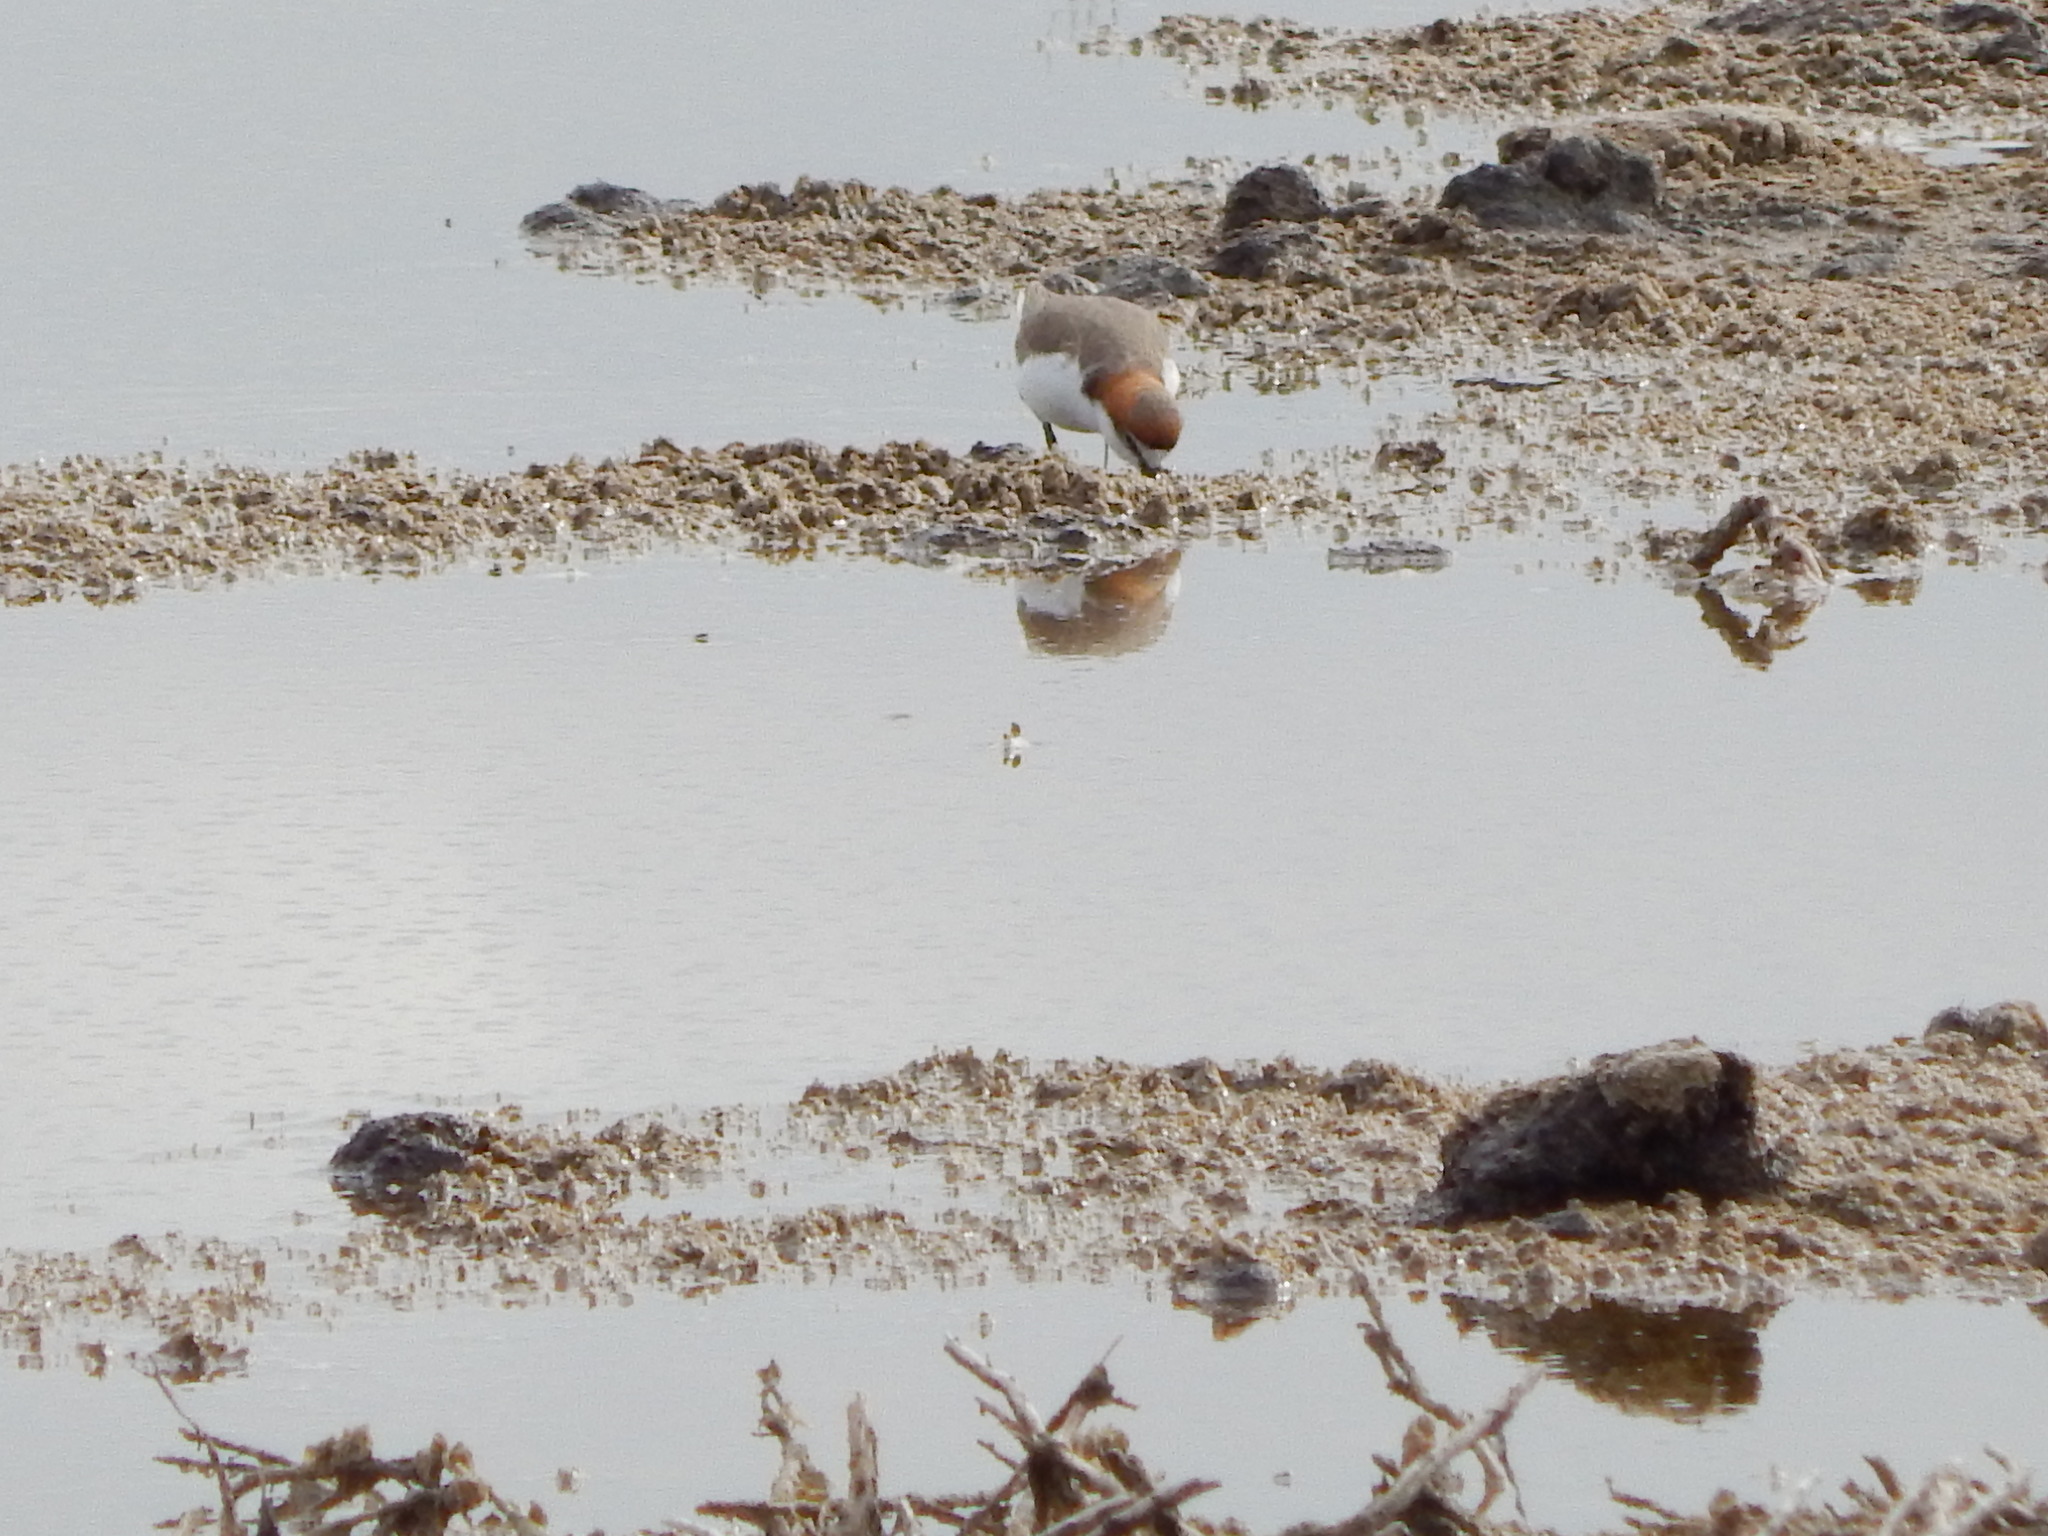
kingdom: Animalia
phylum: Chordata
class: Aves
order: Charadriiformes
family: Charadriidae
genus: Anarhynchus
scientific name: Anarhynchus
